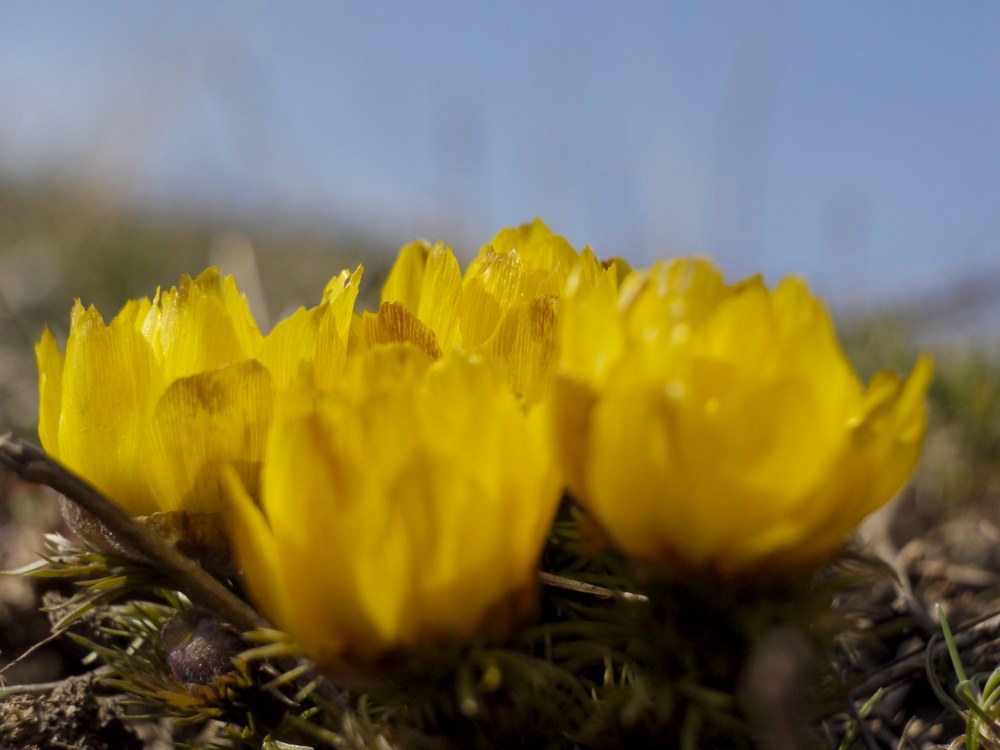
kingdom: Plantae
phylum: Tracheophyta
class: Magnoliopsida
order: Ranunculales
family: Ranunculaceae
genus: Adonis
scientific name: Adonis vernalis
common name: Yellow pheasants-eye
